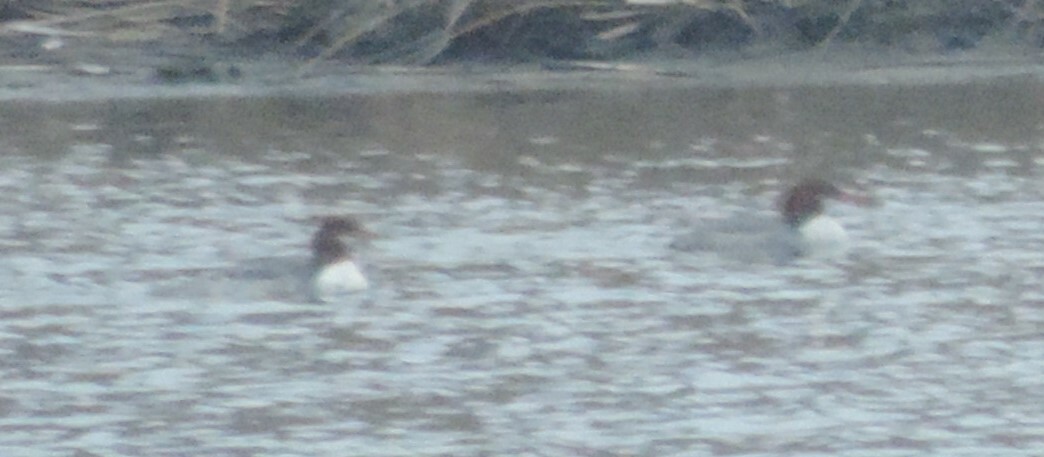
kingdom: Animalia
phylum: Chordata
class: Aves
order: Anseriformes
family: Anatidae
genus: Mergus
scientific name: Mergus merganser
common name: Common merganser
